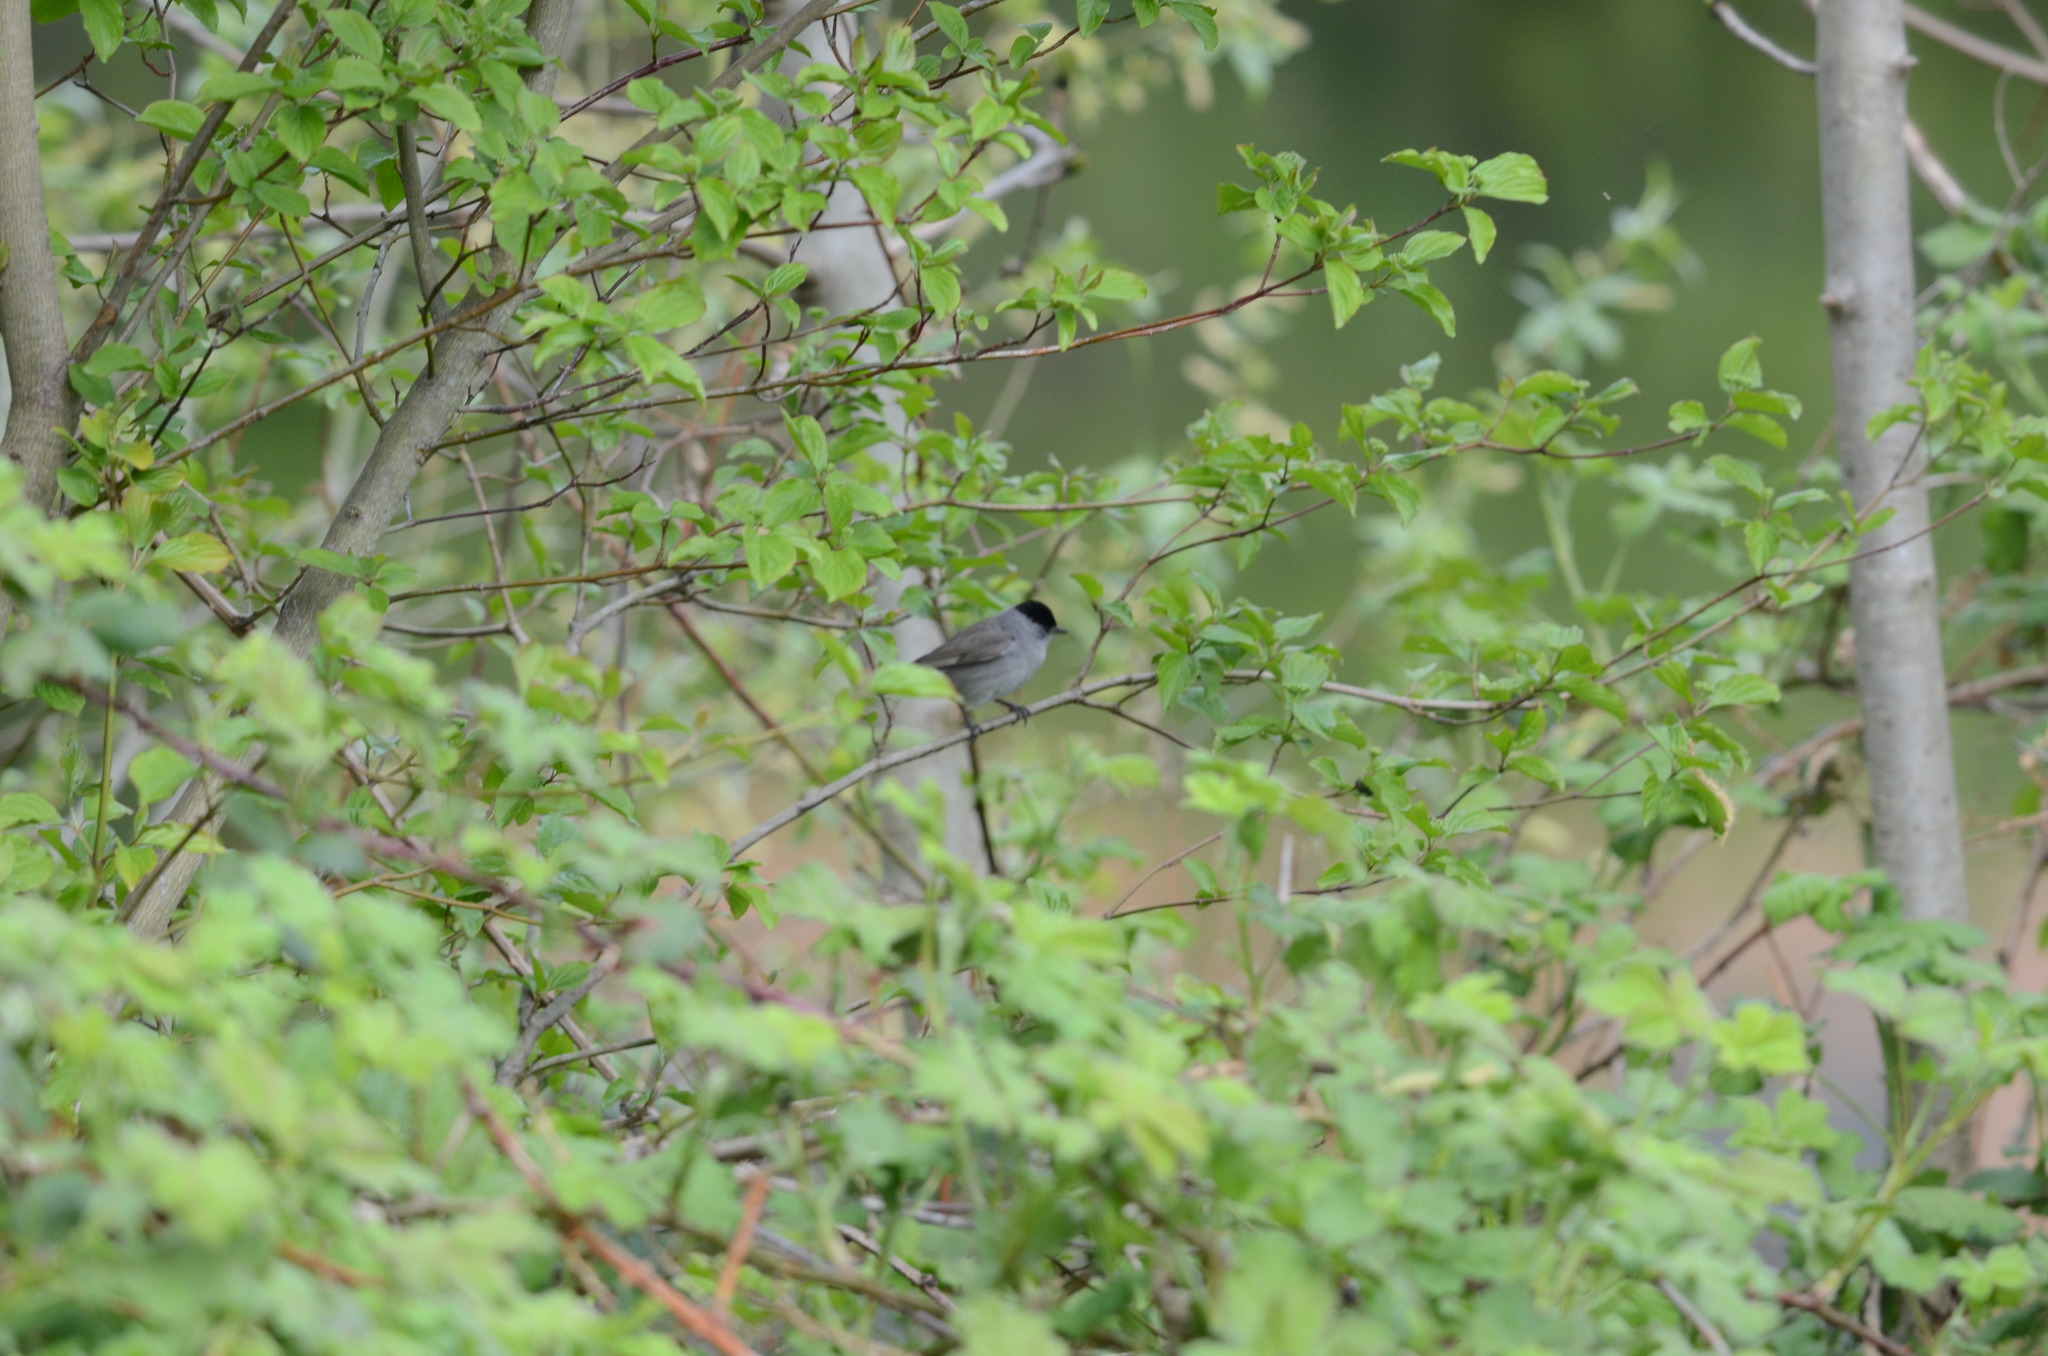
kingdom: Animalia
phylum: Chordata
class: Aves
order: Passeriformes
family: Sylviidae
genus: Sylvia
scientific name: Sylvia atricapilla
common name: Eurasian blackcap
